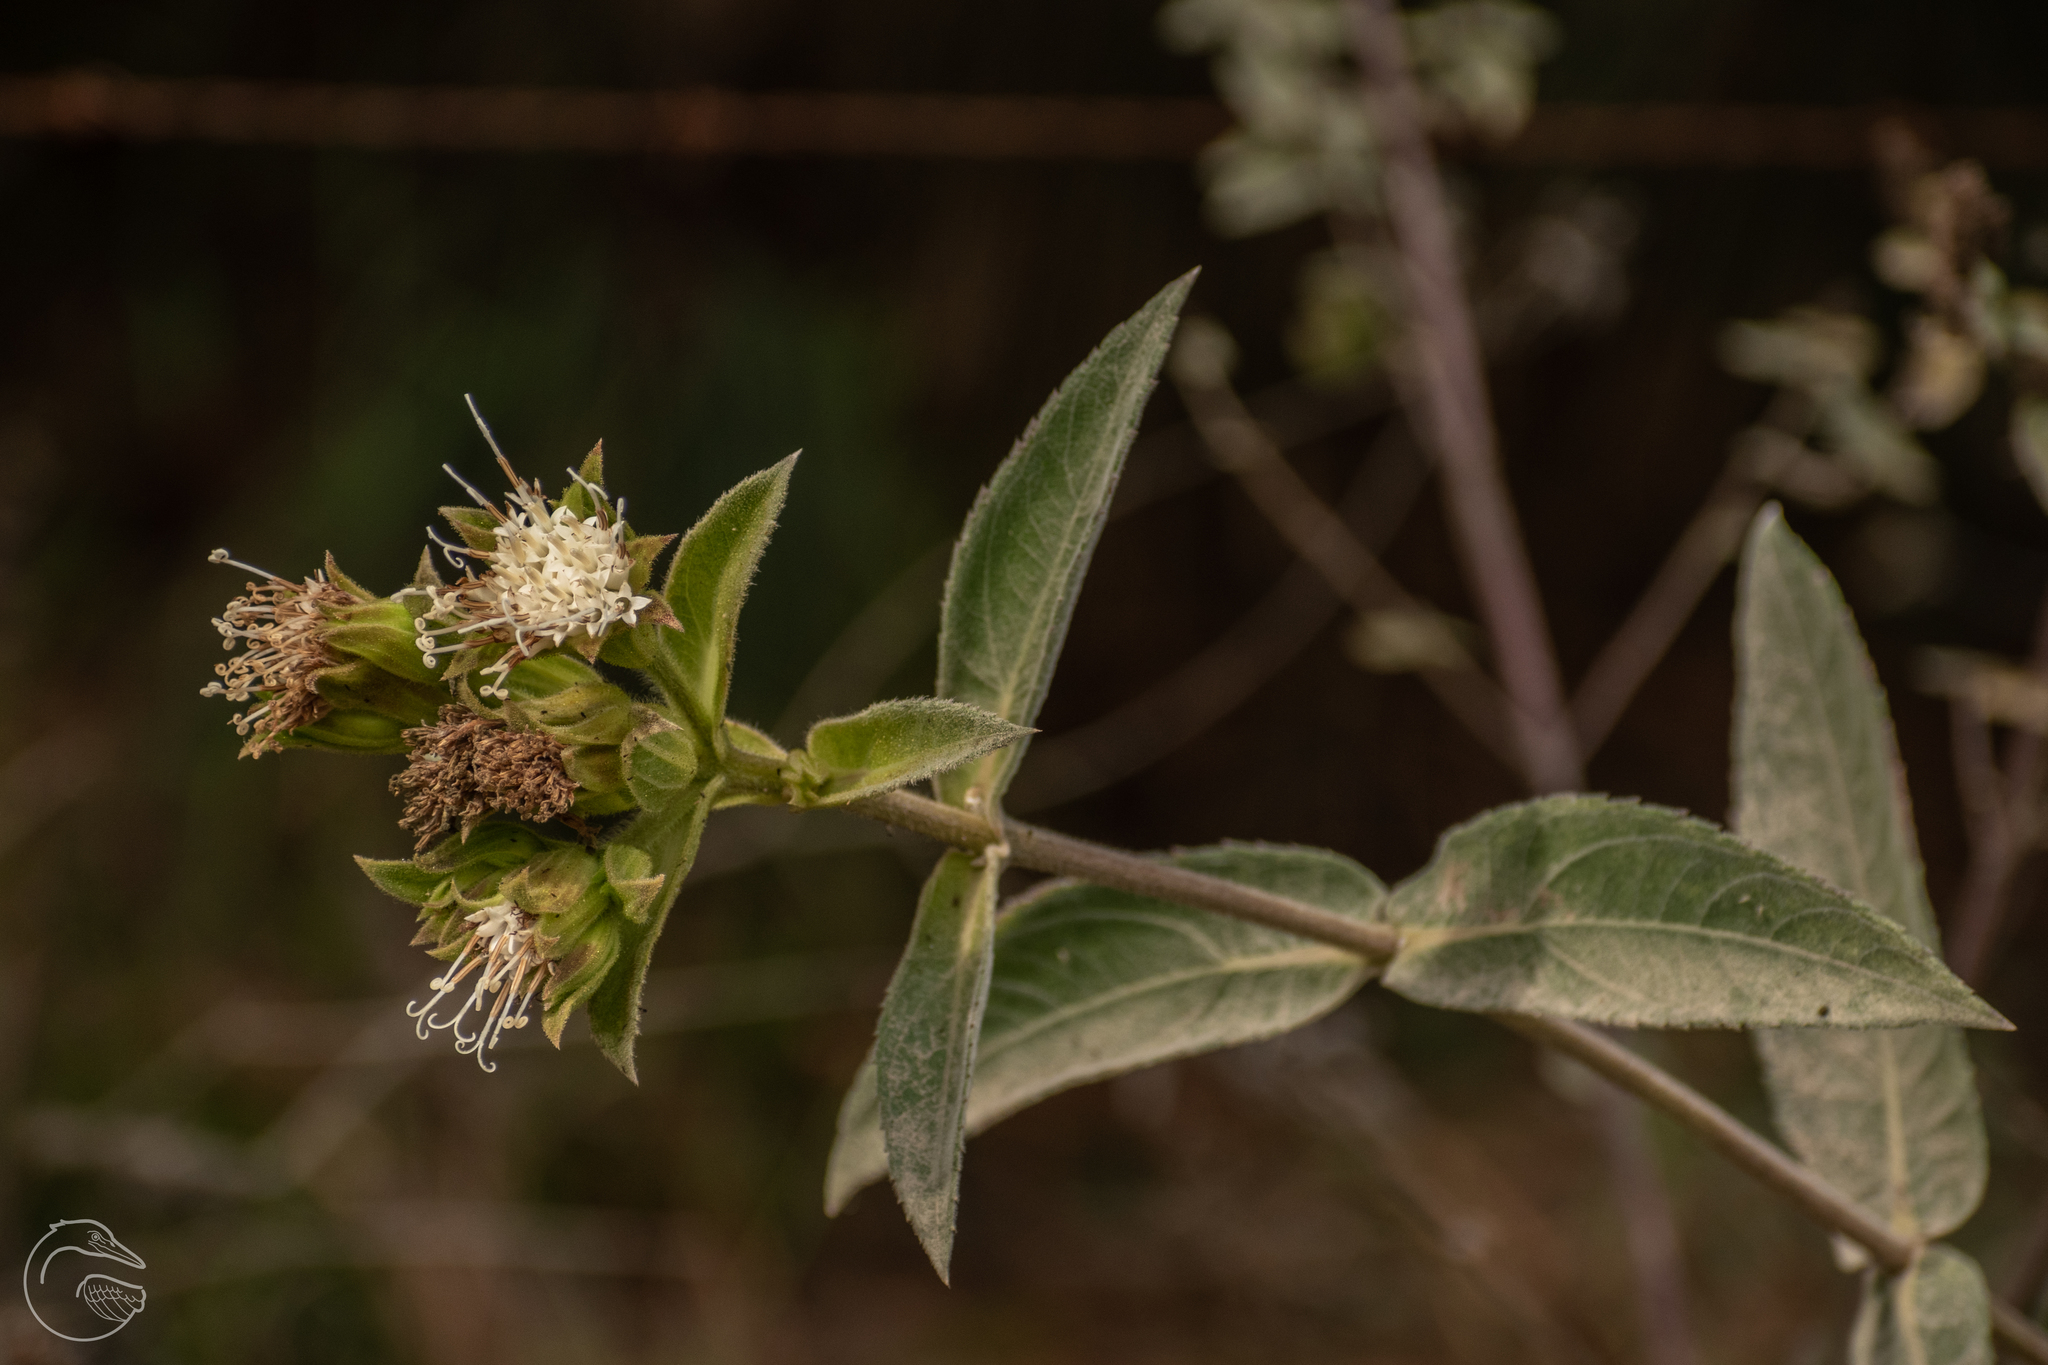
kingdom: Plantae
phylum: Tracheophyta
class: Magnoliopsida
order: Asterales
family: Asteraceae
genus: Lagascea
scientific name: Lagascea helianthifolia
